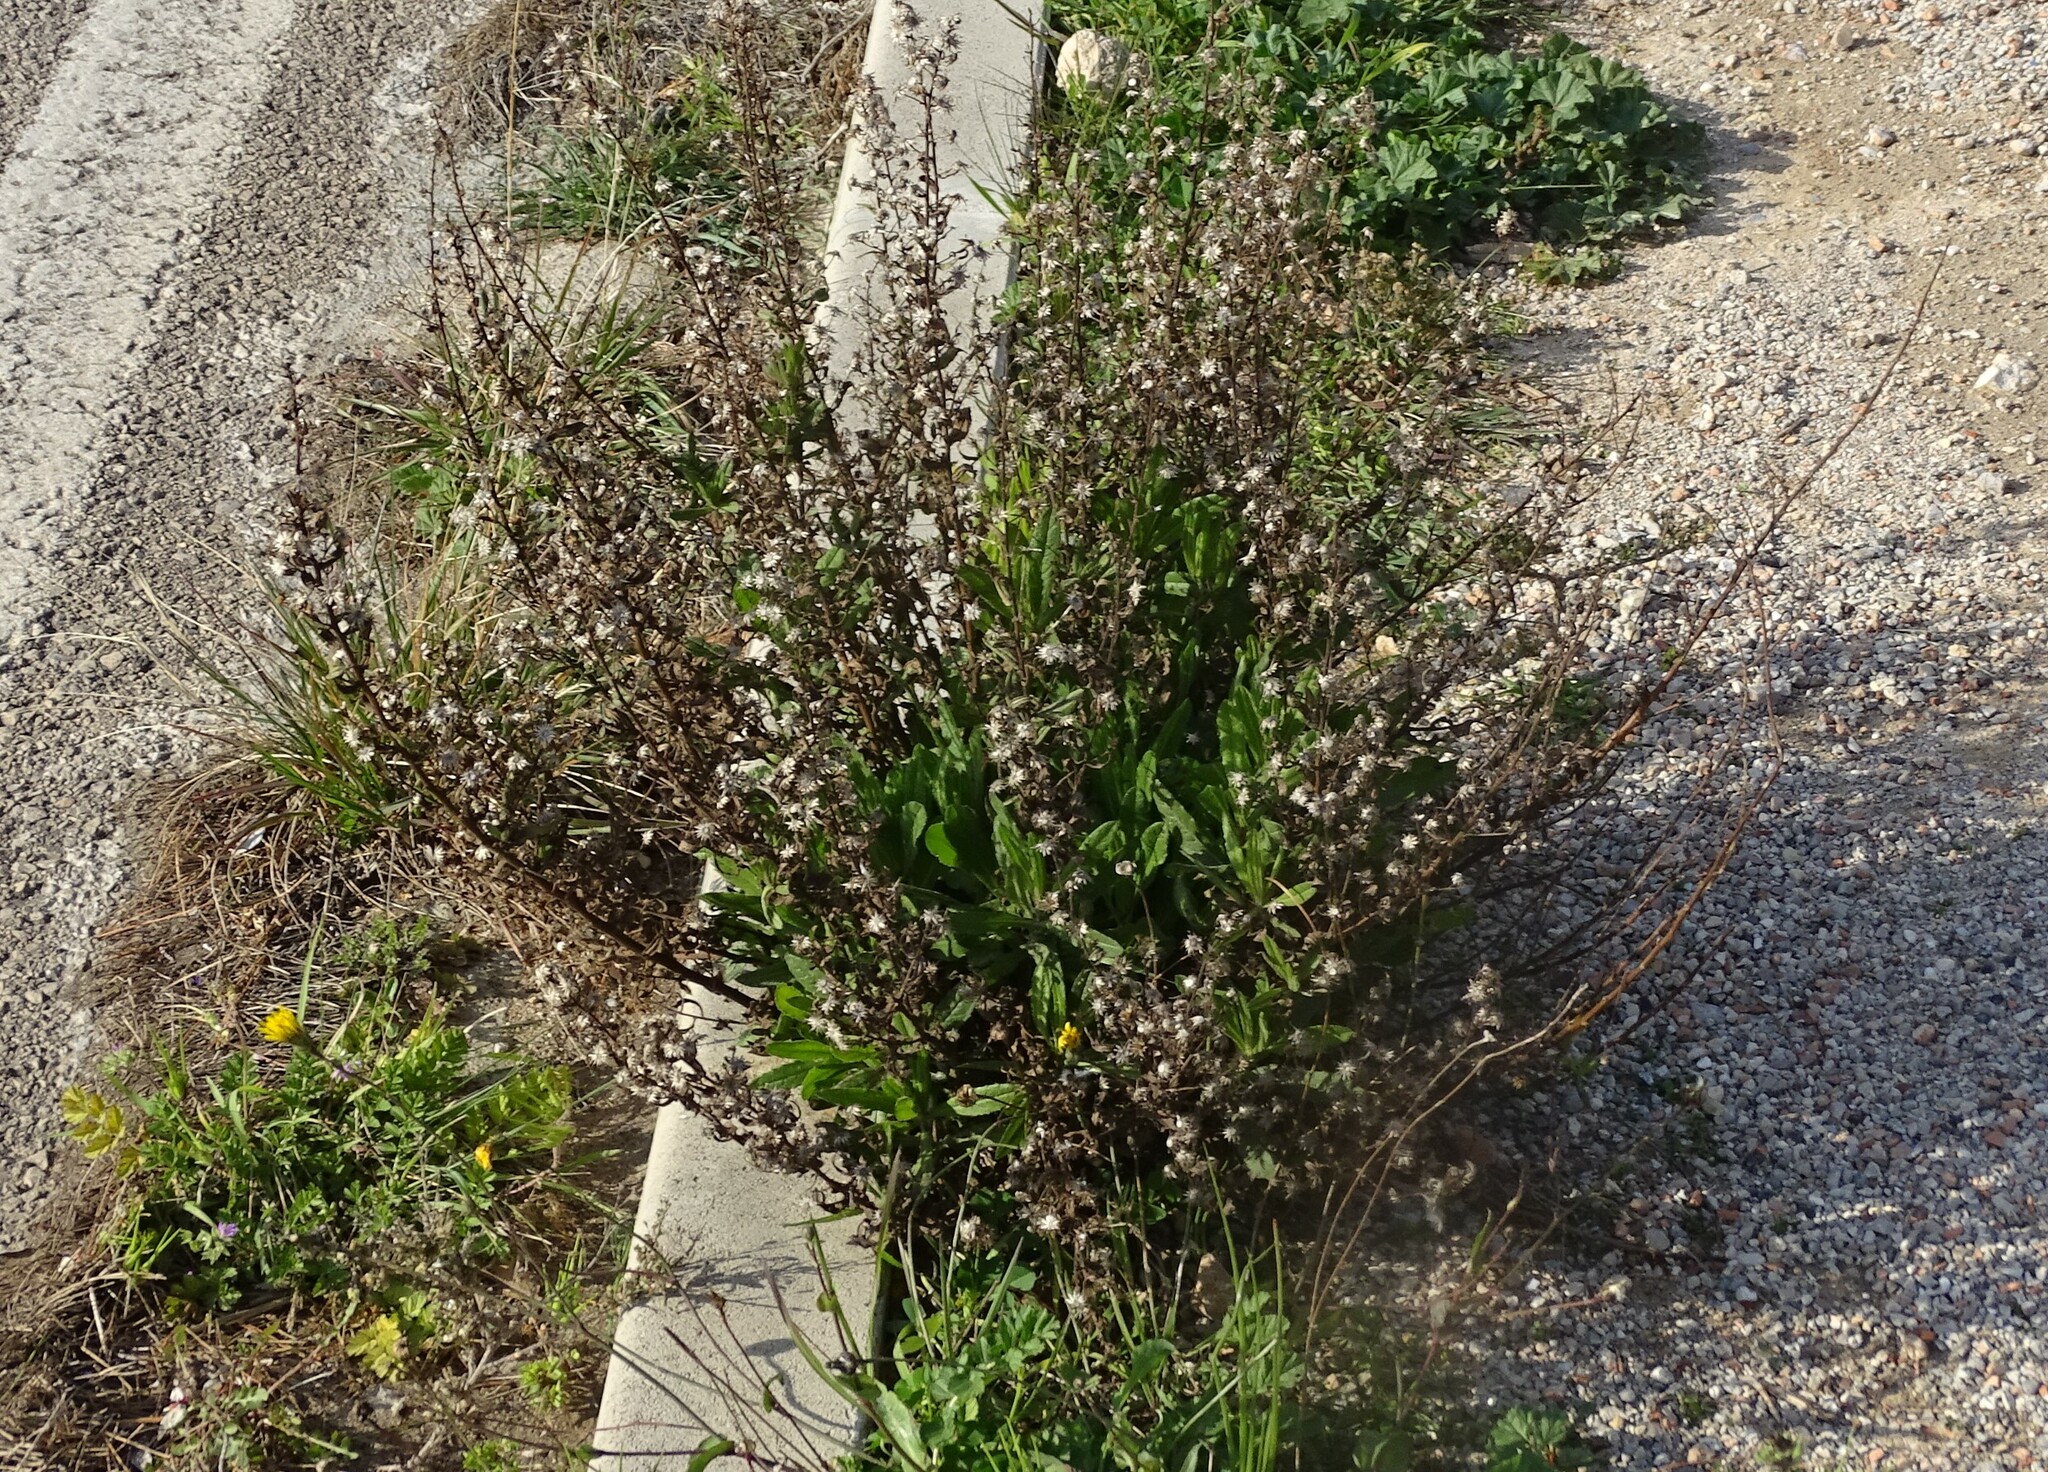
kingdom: Plantae
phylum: Tracheophyta
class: Magnoliopsida
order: Asterales
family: Asteraceae
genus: Dittrichia
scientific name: Dittrichia viscosa
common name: Woody fleabane
